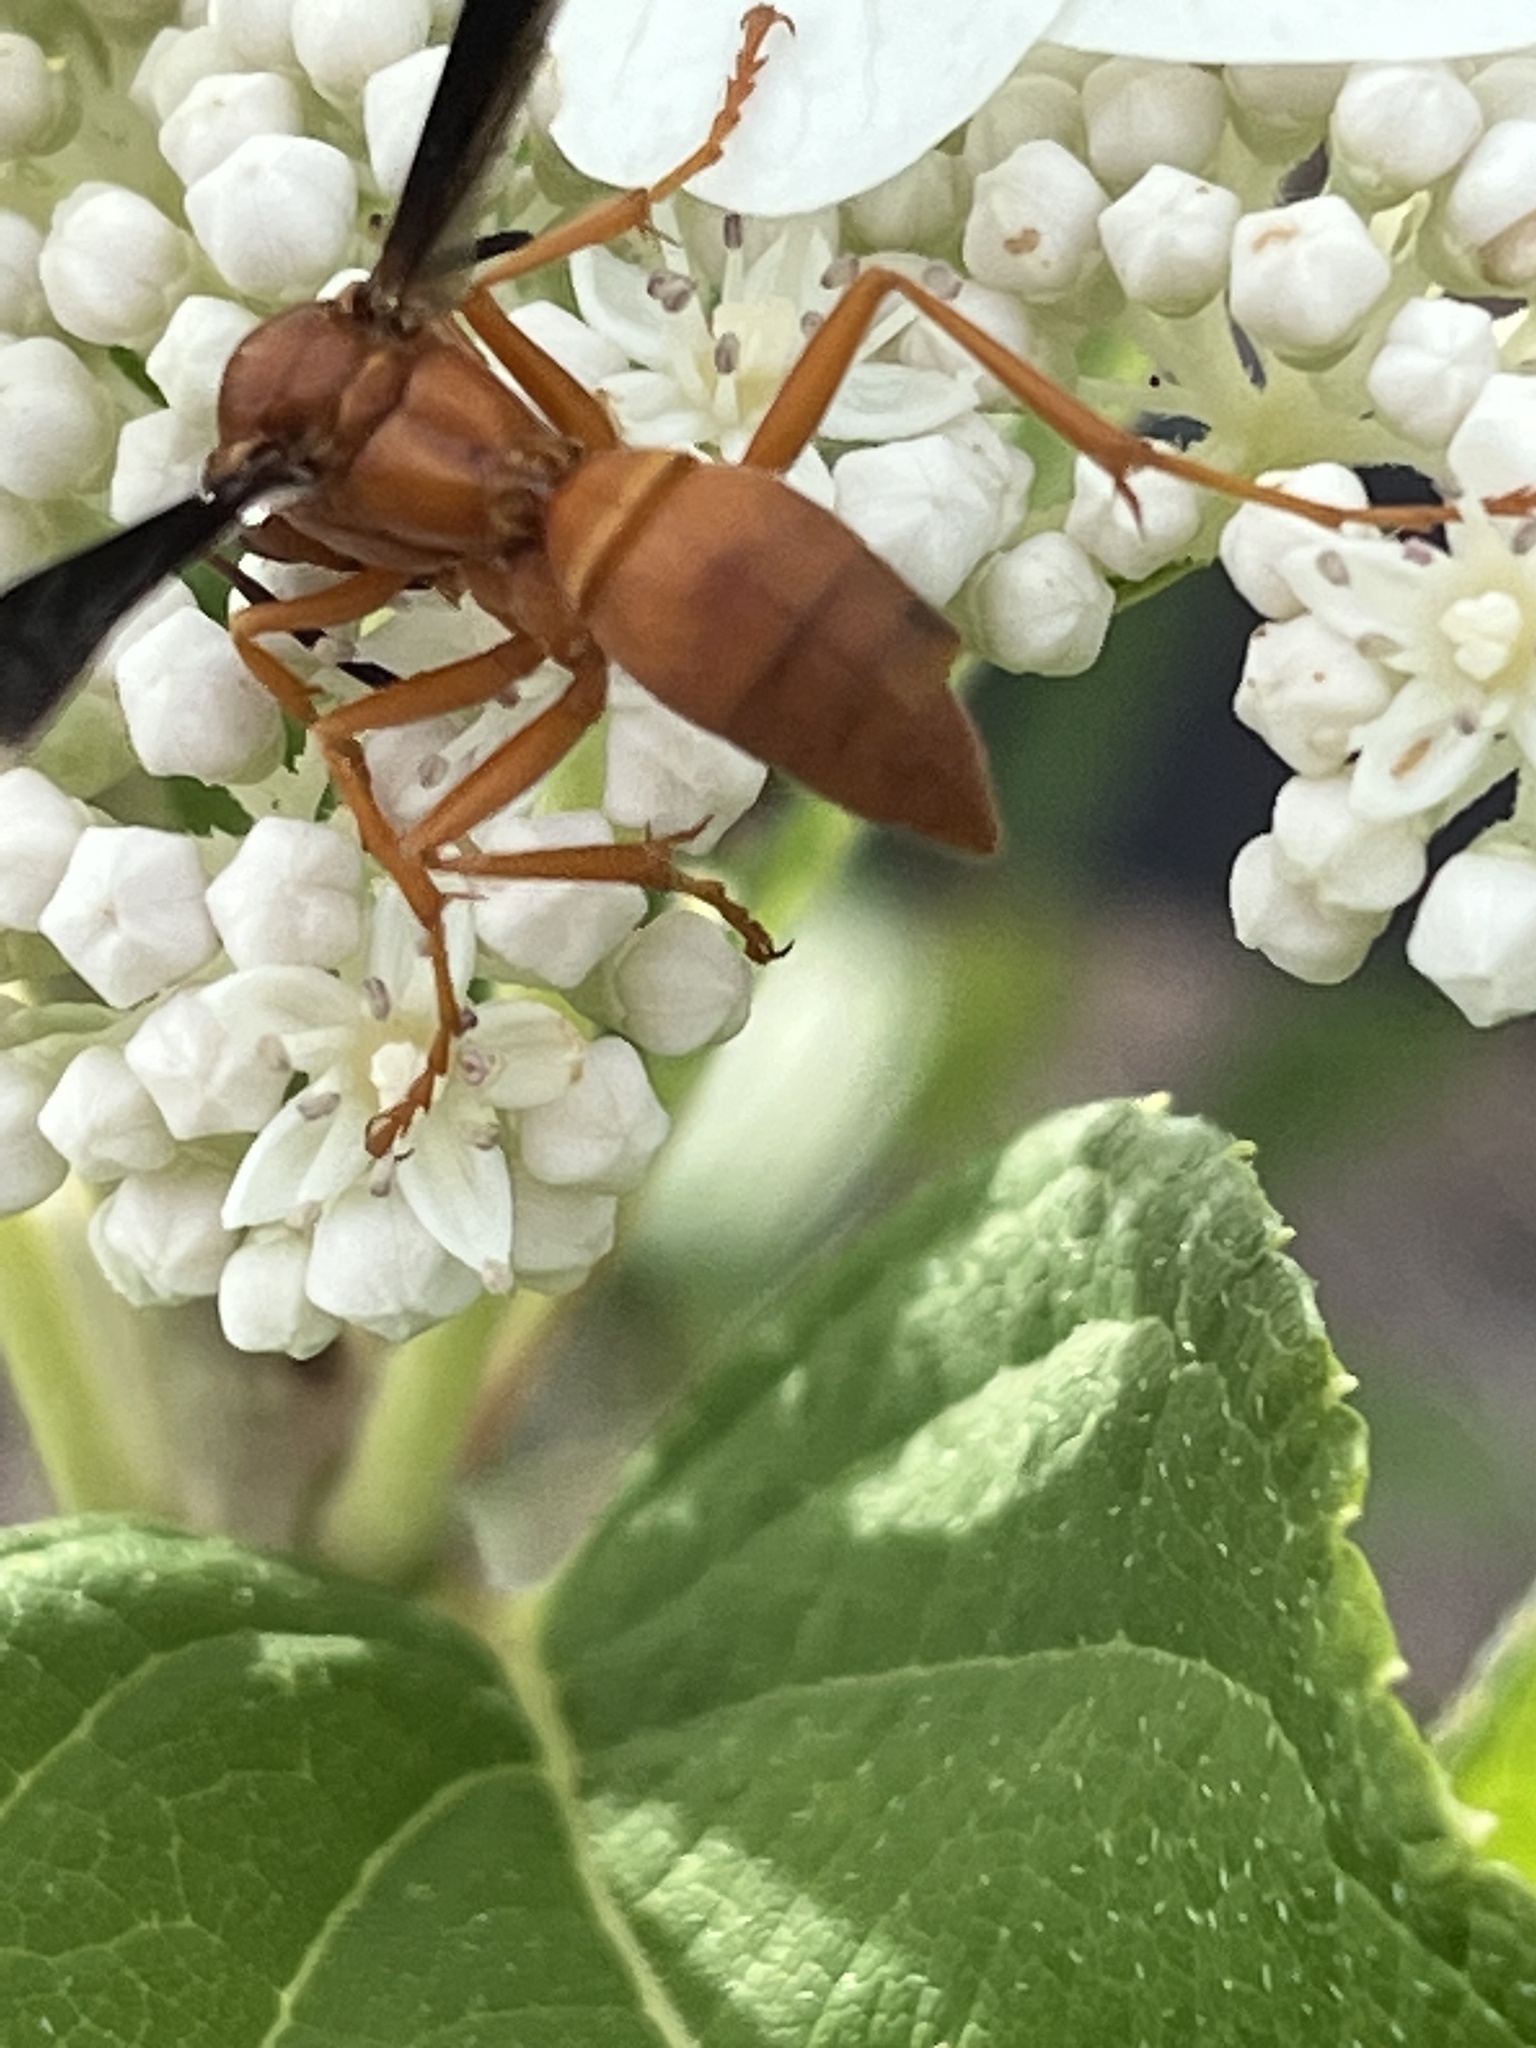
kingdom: Animalia
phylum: Arthropoda
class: Insecta
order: Hymenoptera
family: Vespidae
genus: Fuscopolistes
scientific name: Fuscopolistes
